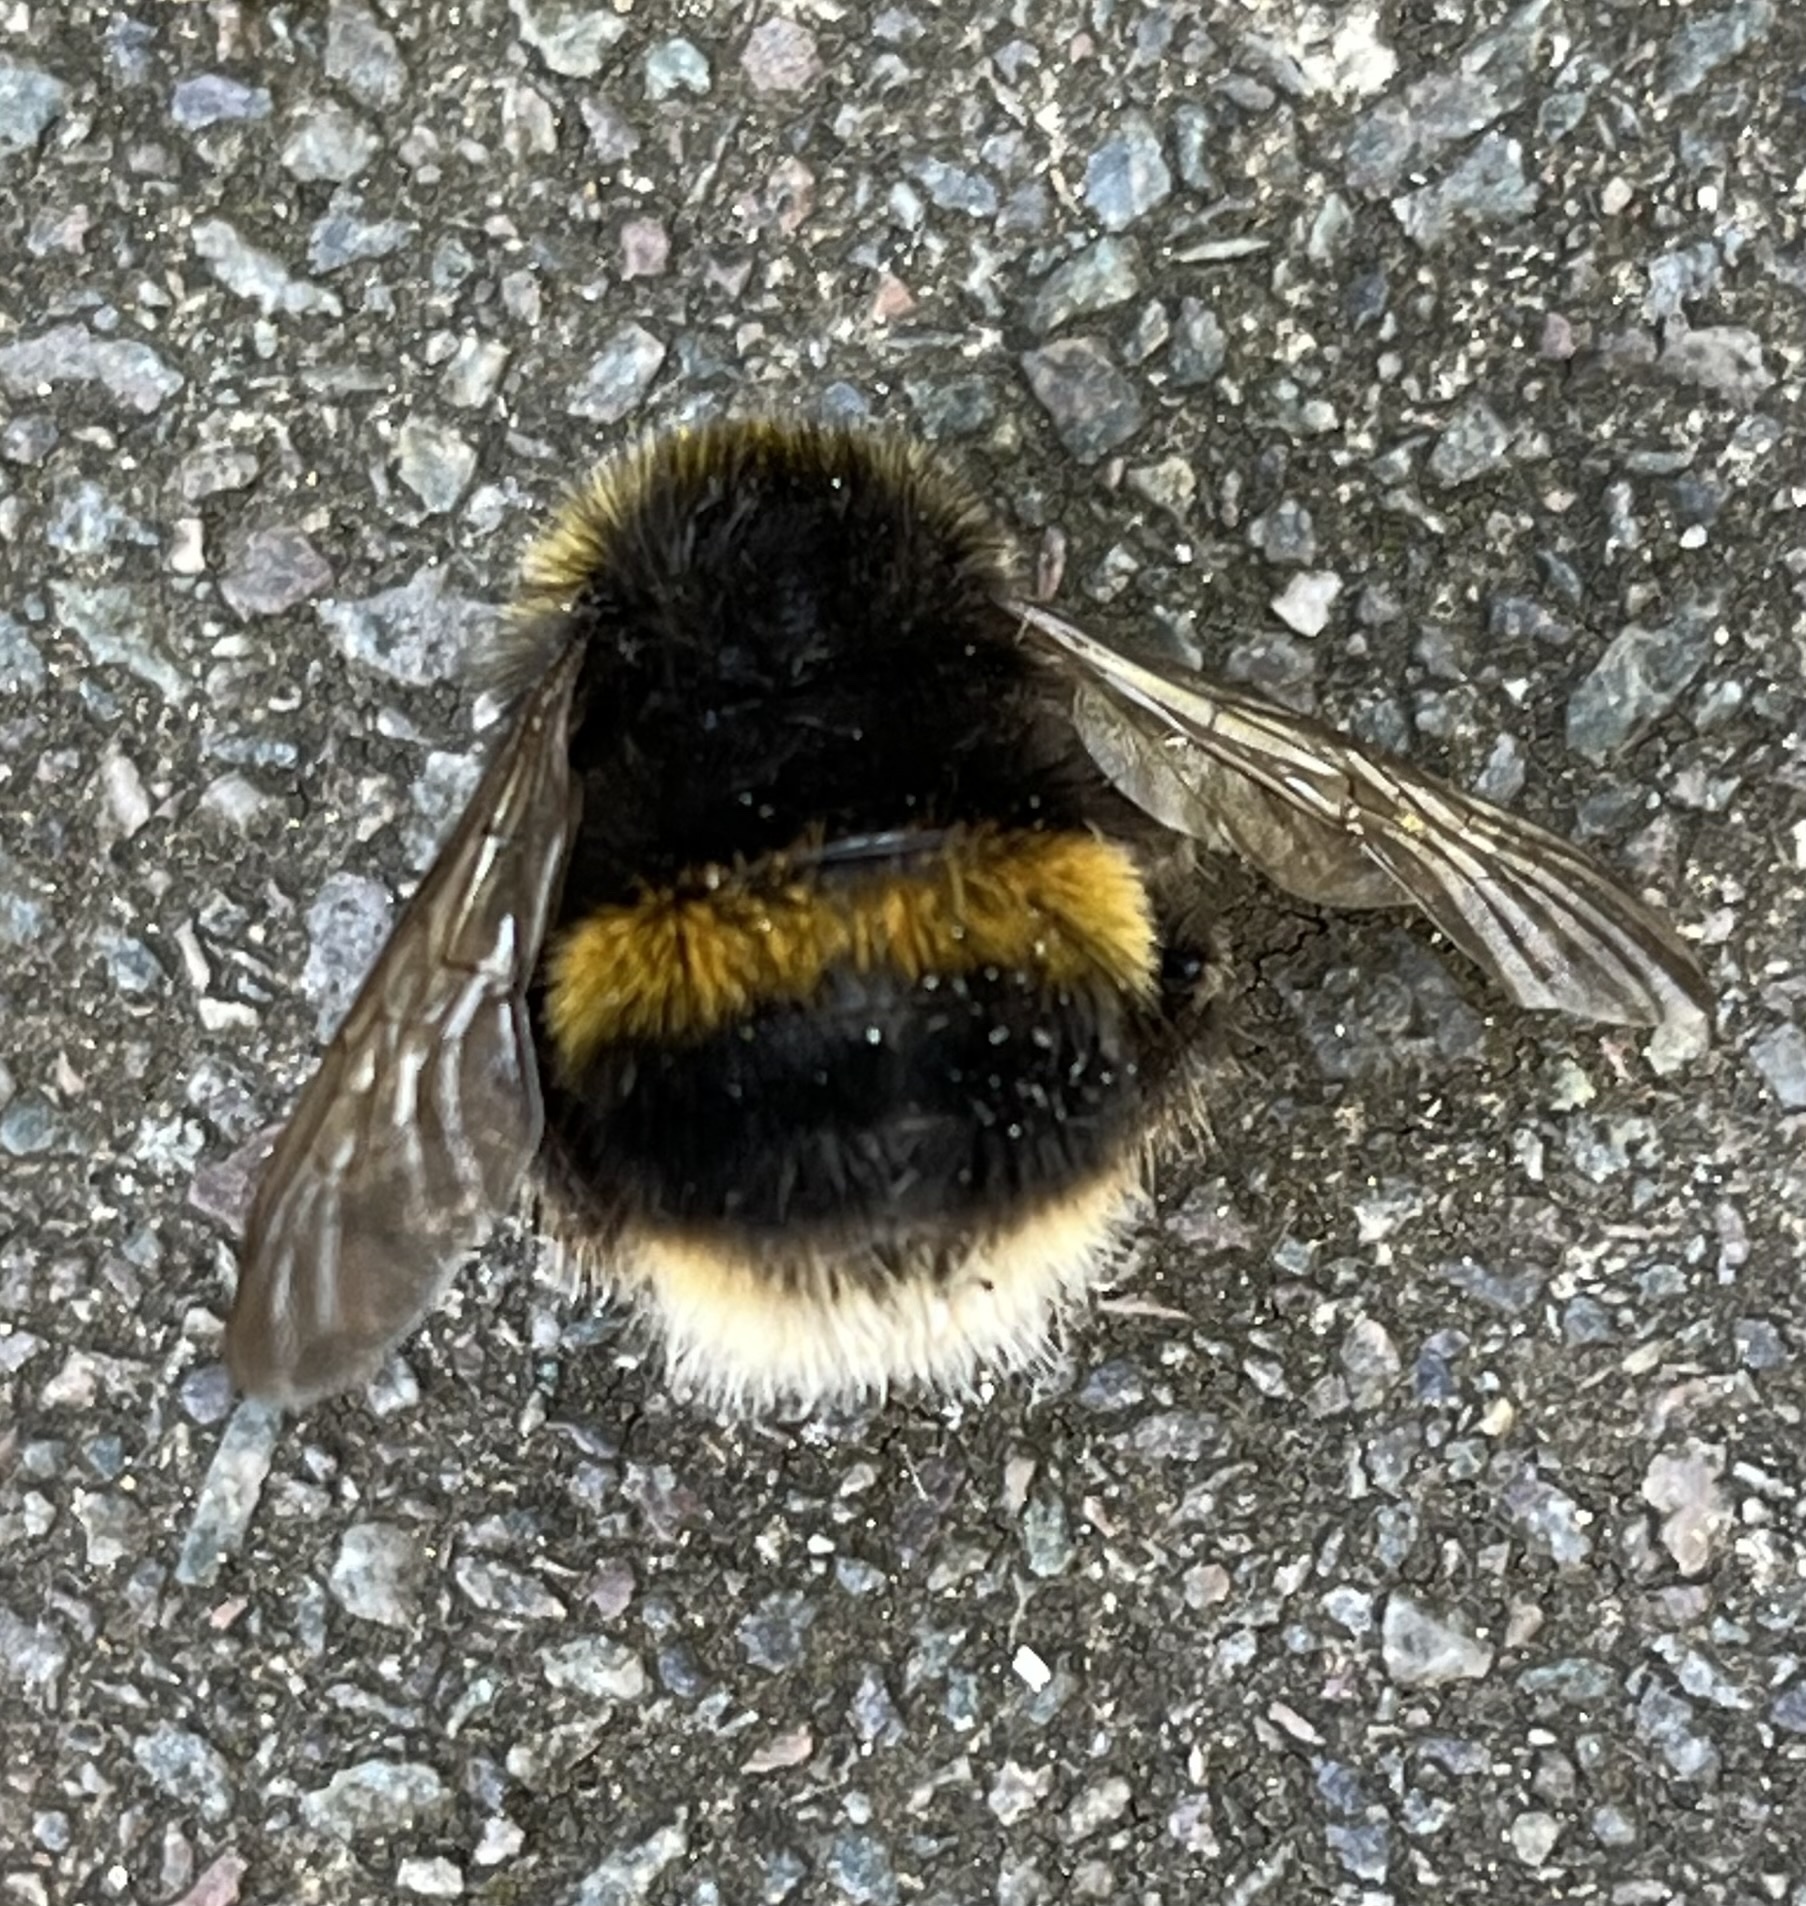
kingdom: Animalia
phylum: Arthropoda
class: Insecta
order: Hymenoptera
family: Apidae
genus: Bombus
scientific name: Bombus terrestris
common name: Buff-tailed bumblebee
